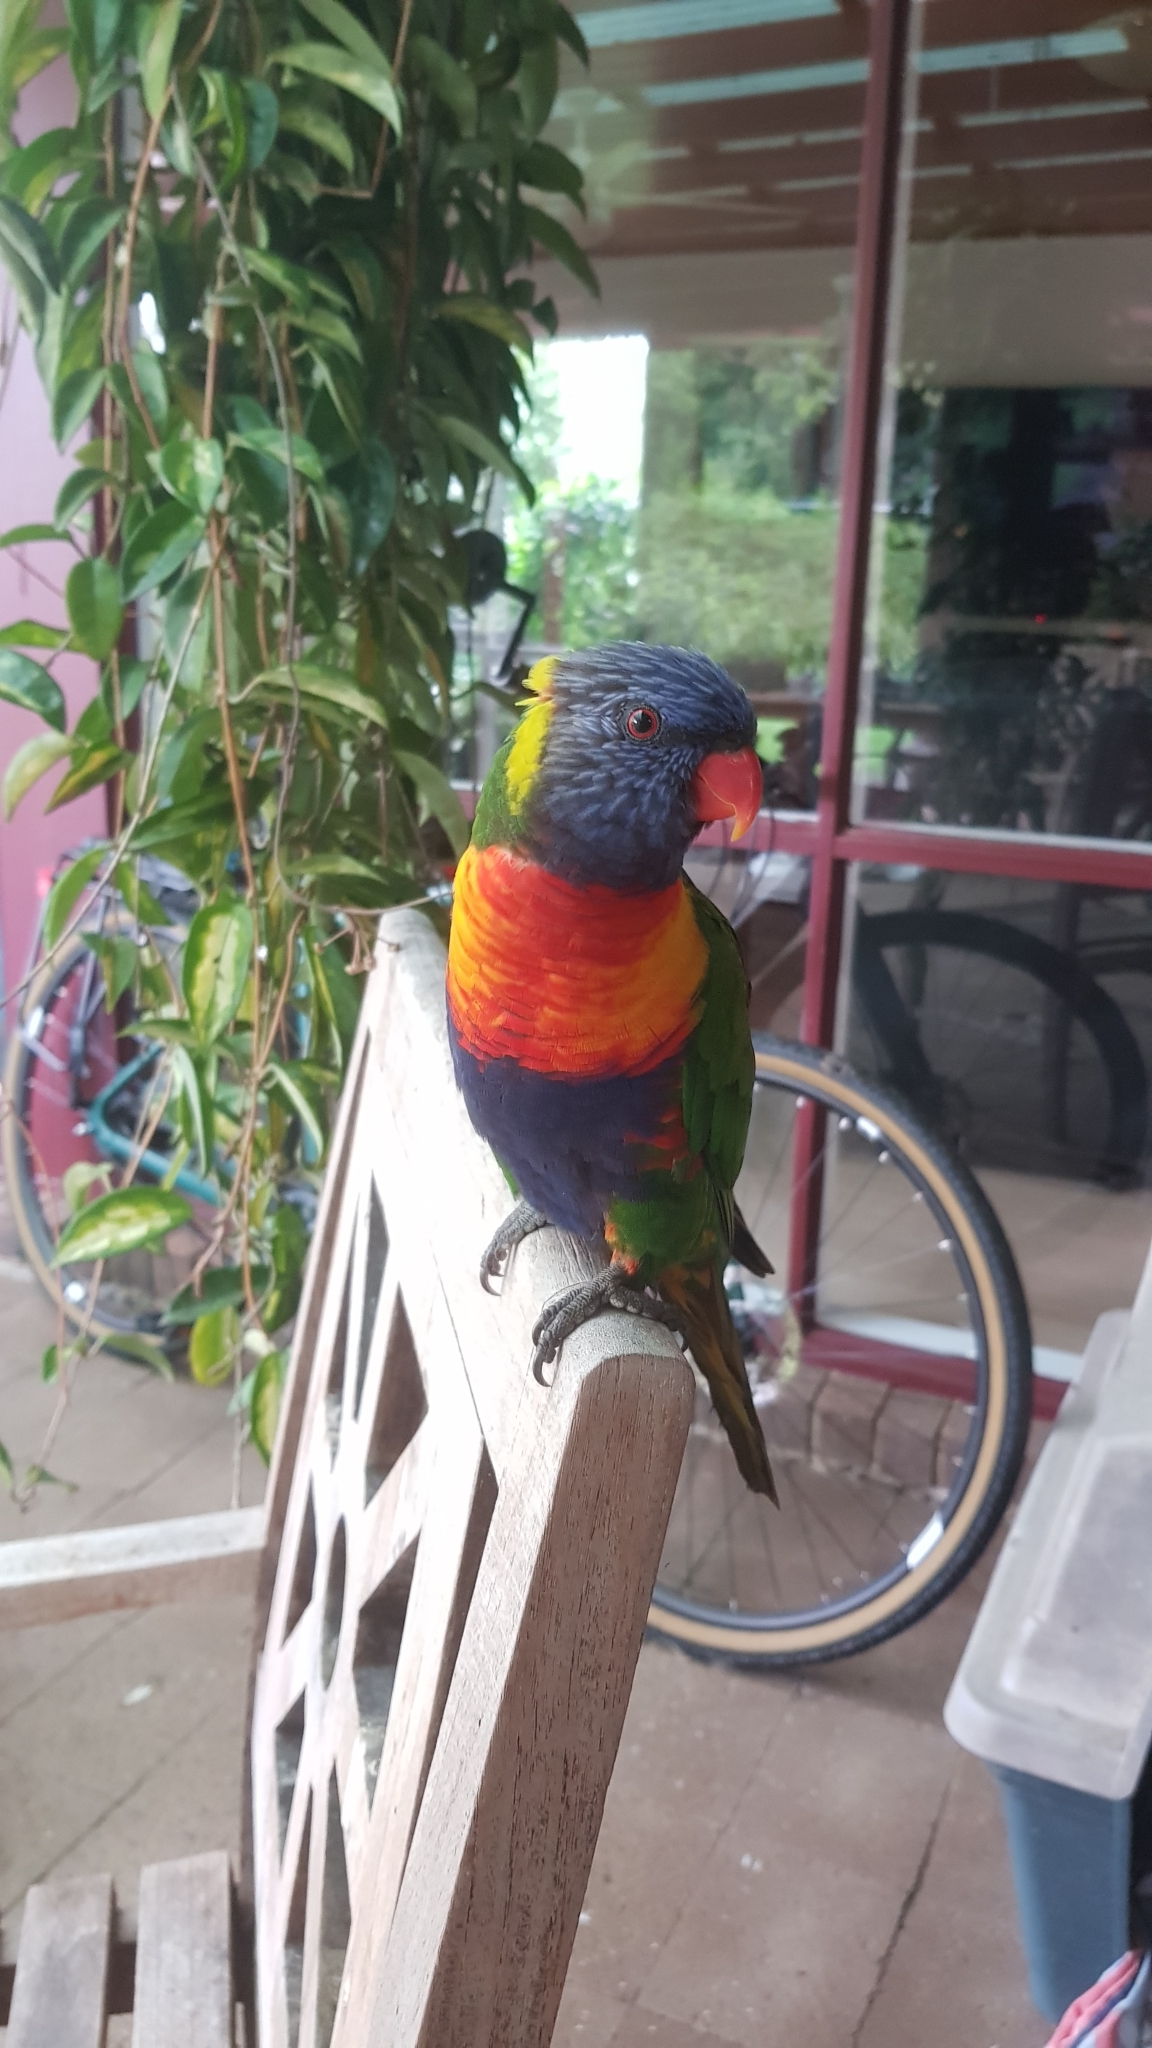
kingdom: Animalia
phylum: Chordata
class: Aves
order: Psittaciformes
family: Psittacidae
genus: Trichoglossus
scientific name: Trichoglossus haematodus
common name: Coconut lorikeet
